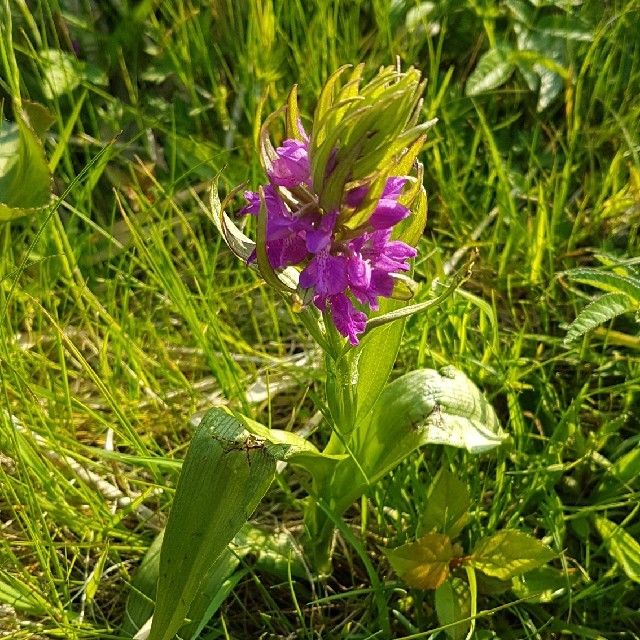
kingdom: Plantae
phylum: Tracheophyta
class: Liliopsida
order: Asparagales
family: Orchidaceae
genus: Dactylorhiza
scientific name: Dactylorhiza majalis
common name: Marsh orchid
